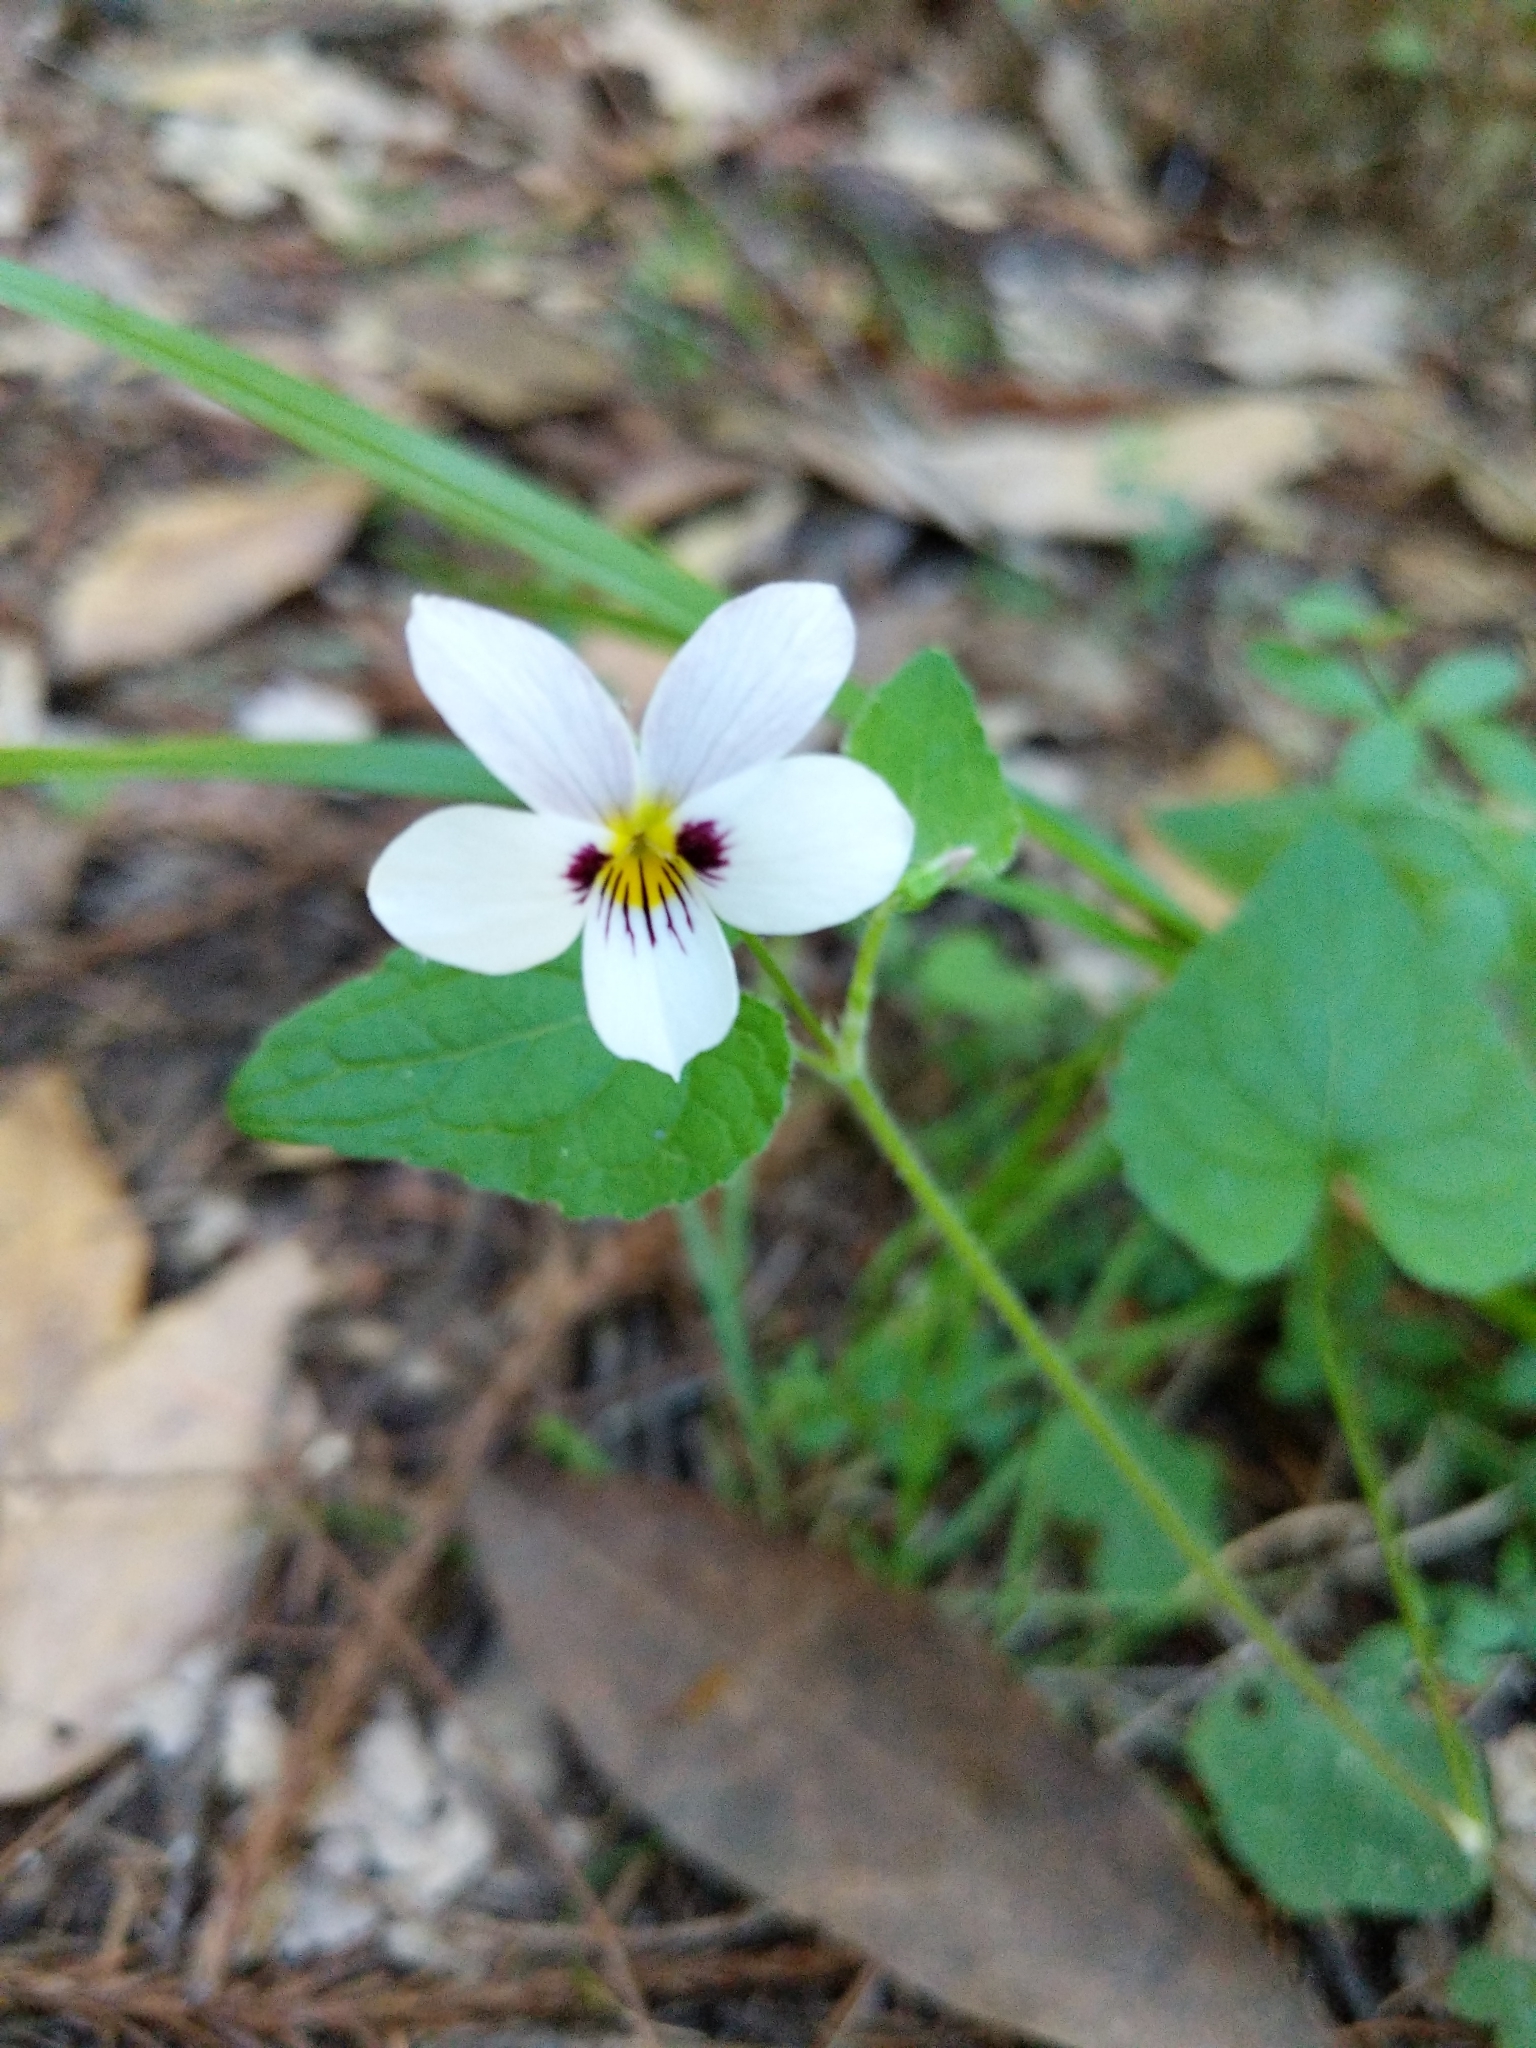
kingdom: Plantae
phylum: Tracheophyta
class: Magnoliopsida
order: Malpighiales
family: Violaceae
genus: Viola
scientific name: Viola ocellata
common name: Western heart's ease
